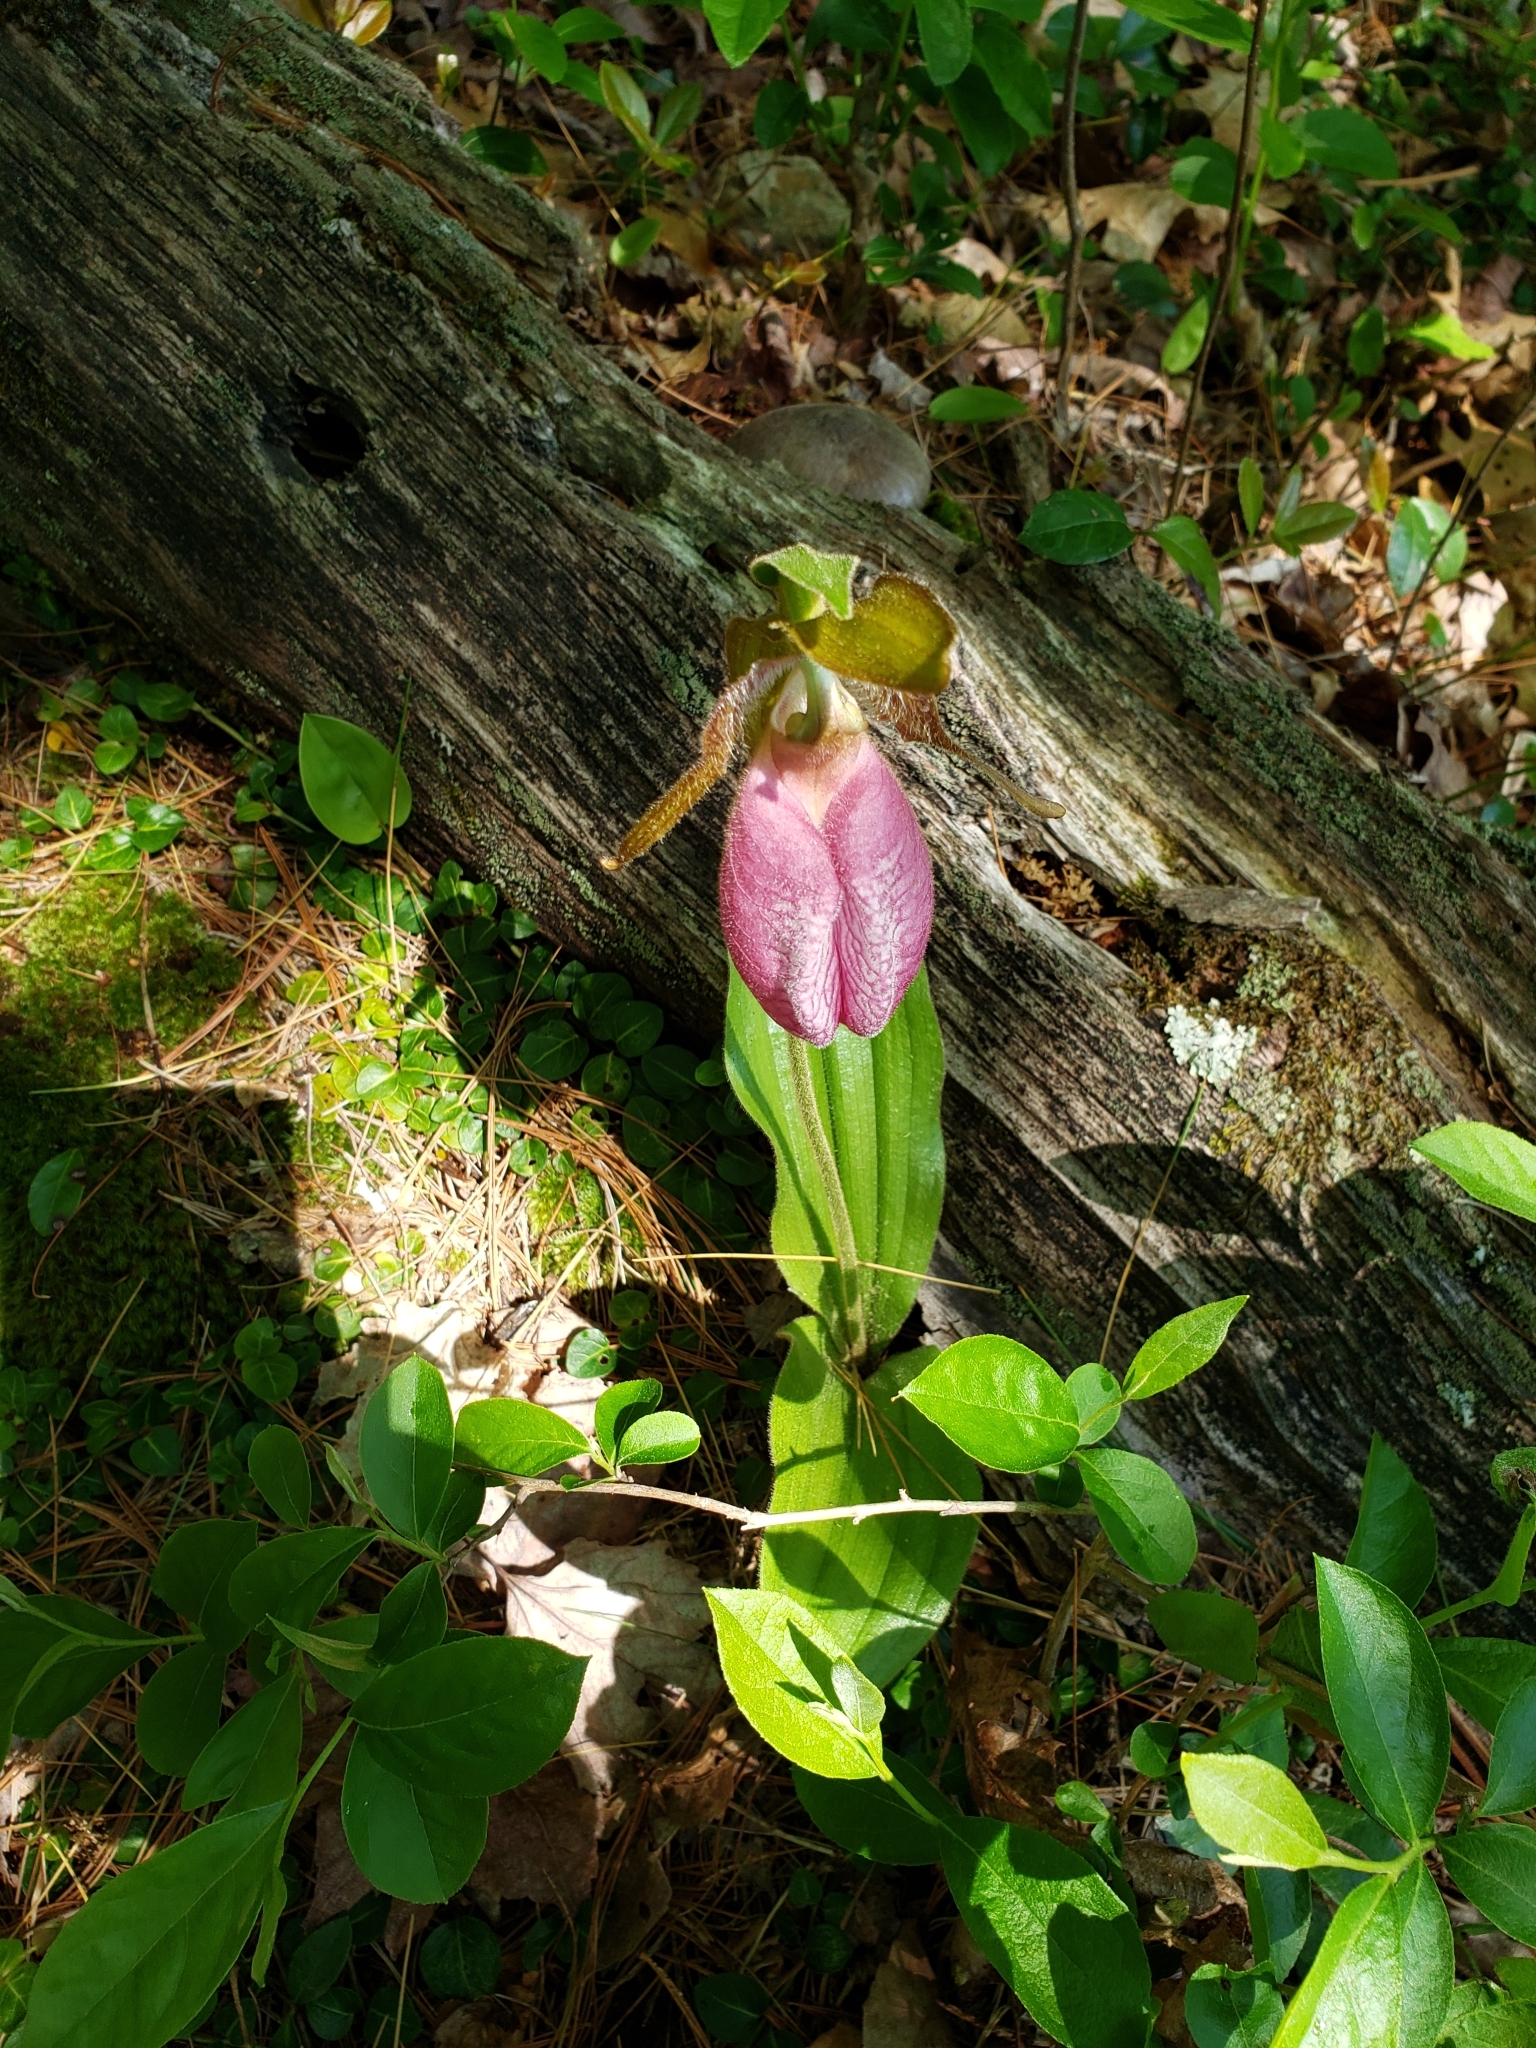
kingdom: Plantae
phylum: Tracheophyta
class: Liliopsida
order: Asparagales
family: Orchidaceae
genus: Cypripedium
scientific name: Cypripedium acaule
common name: Pink lady's-slipper
